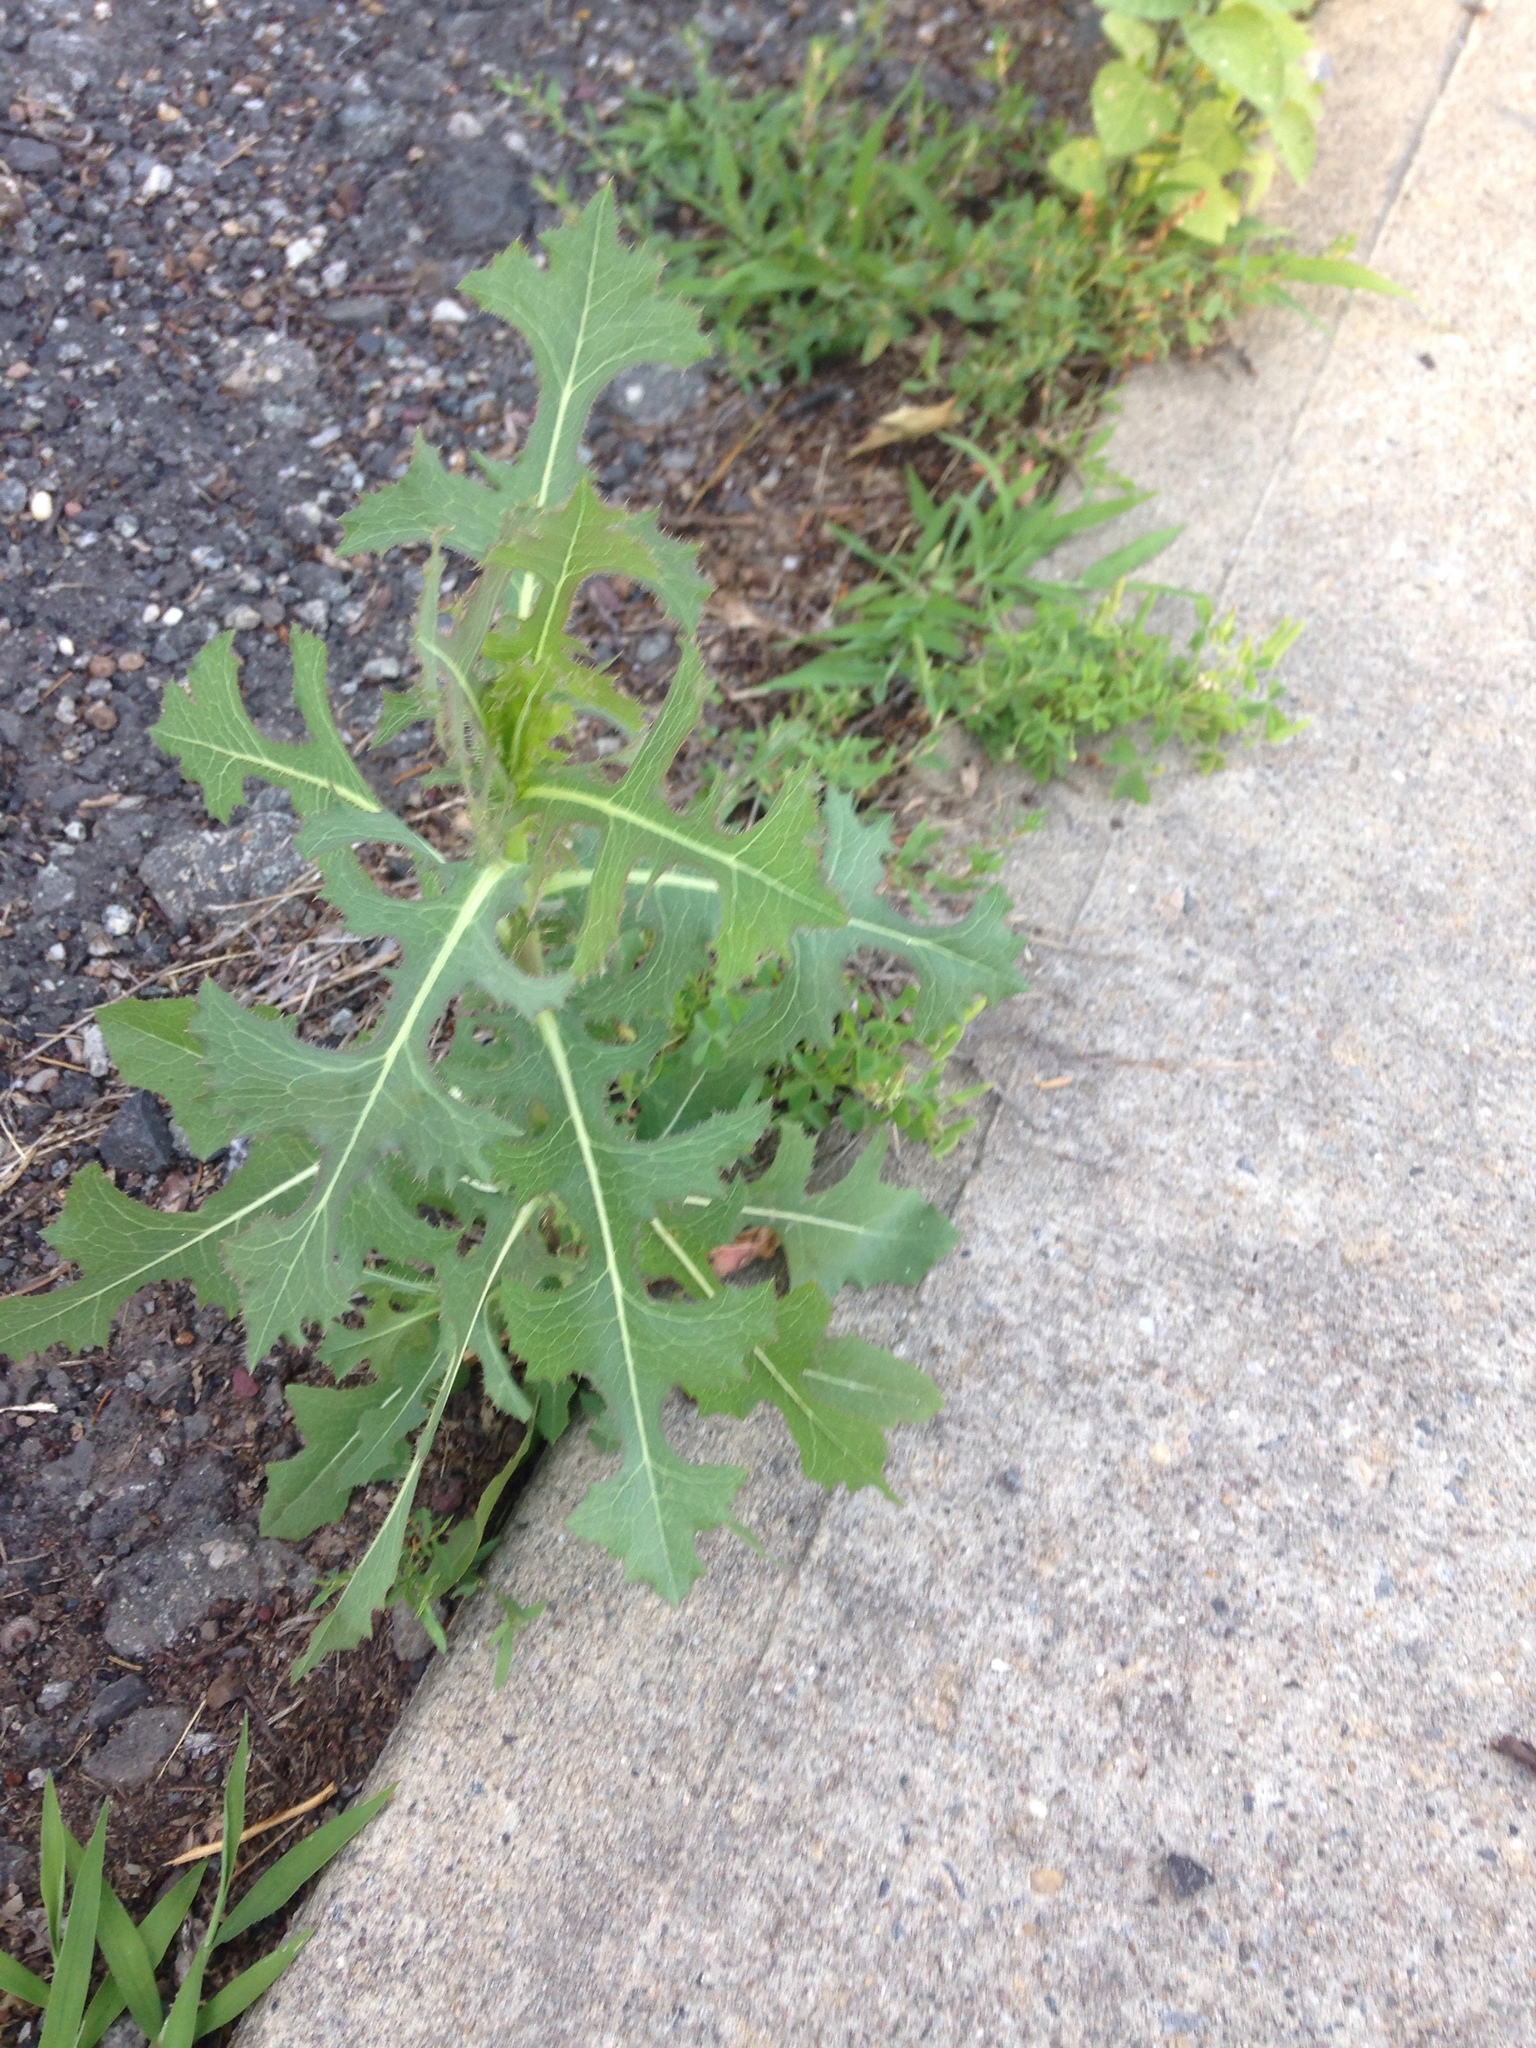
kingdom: Plantae
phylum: Tracheophyta
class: Magnoliopsida
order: Asterales
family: Asteraceae
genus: Lactuca
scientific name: Lactuca serriola
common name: Prickly lettuce
